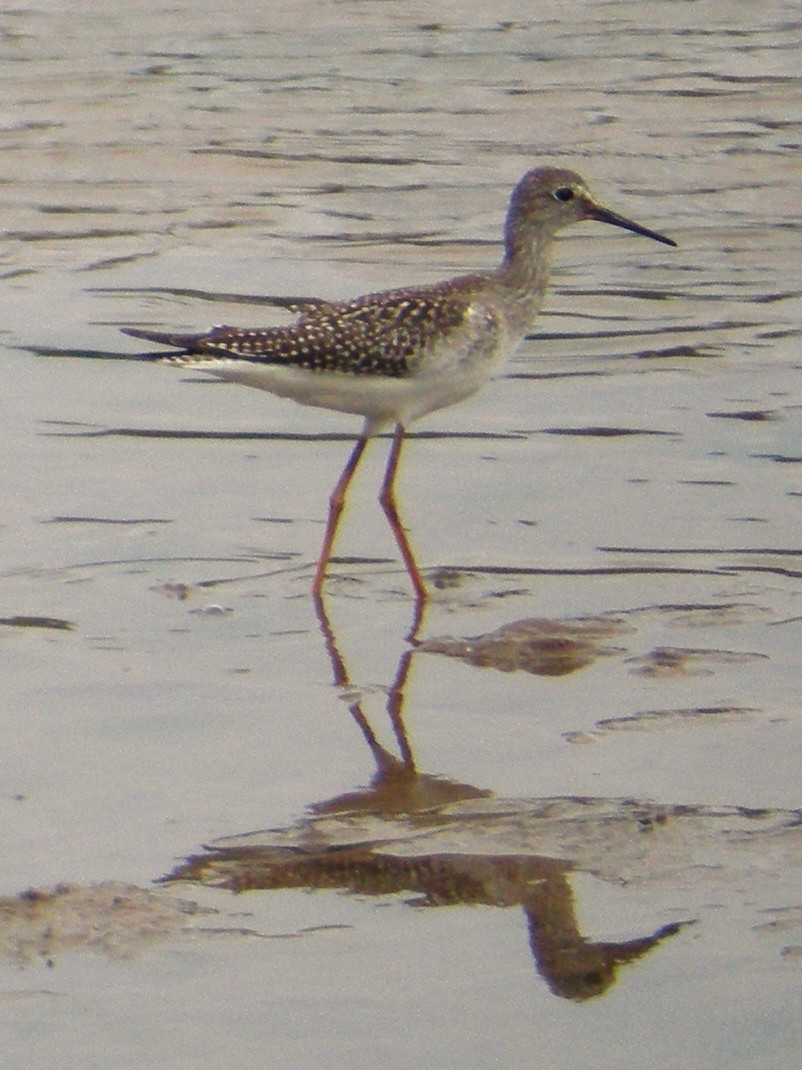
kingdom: Animalia
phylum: Chordata
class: Aves
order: Charadriiformes
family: Scolopacidae
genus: Tringa
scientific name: Tringa flavipes
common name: Lesser yellowlegs
